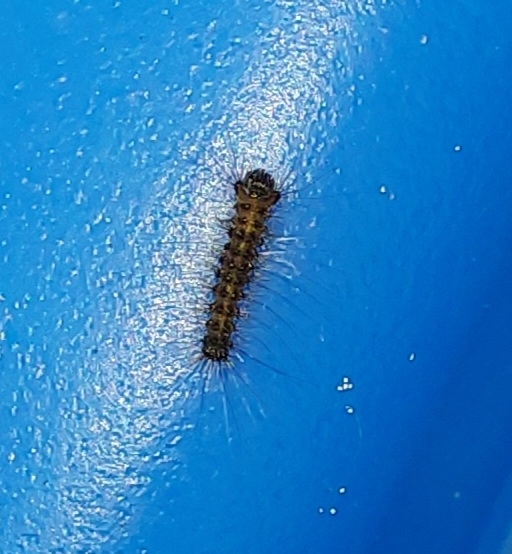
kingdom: Animalia
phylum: Arthropoda
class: Insecta
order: Lepidoptera
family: Erebidae
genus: Lymantria
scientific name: Lymantria dispar
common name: Gypsy moth
